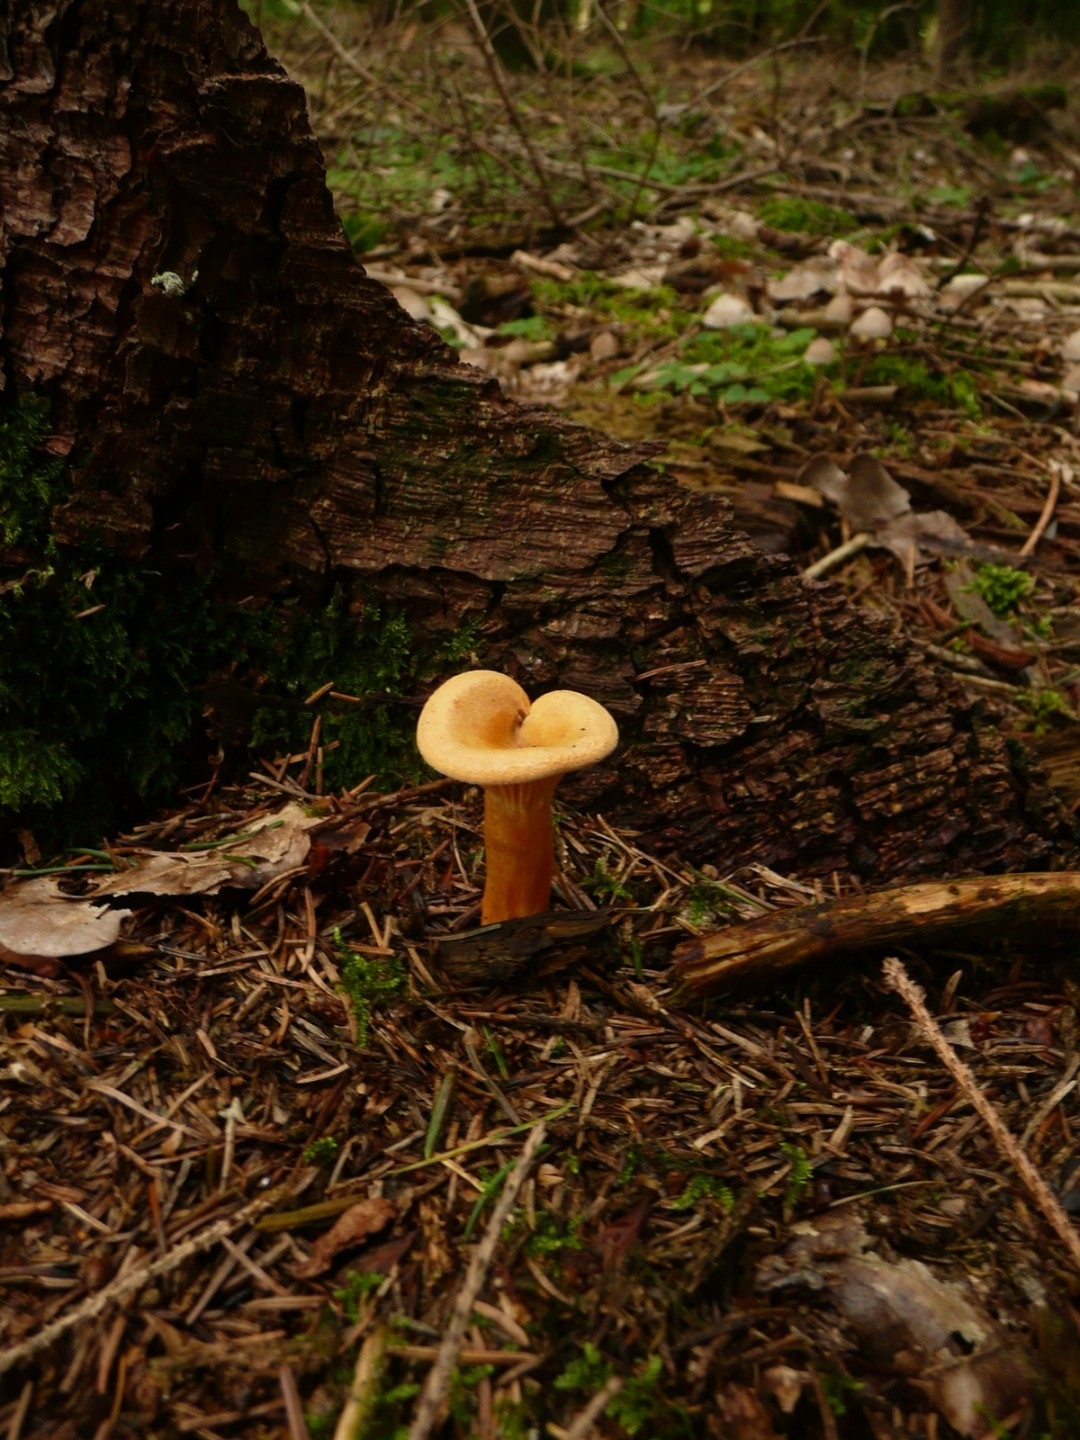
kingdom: Fungi
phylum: Basidiomycota
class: Agaricomycetes
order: Boletales
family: Hygrophoropsidaceae
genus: Hygrophoropsis
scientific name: Hygrophoropsis aurantiaca
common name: False chanterelle
